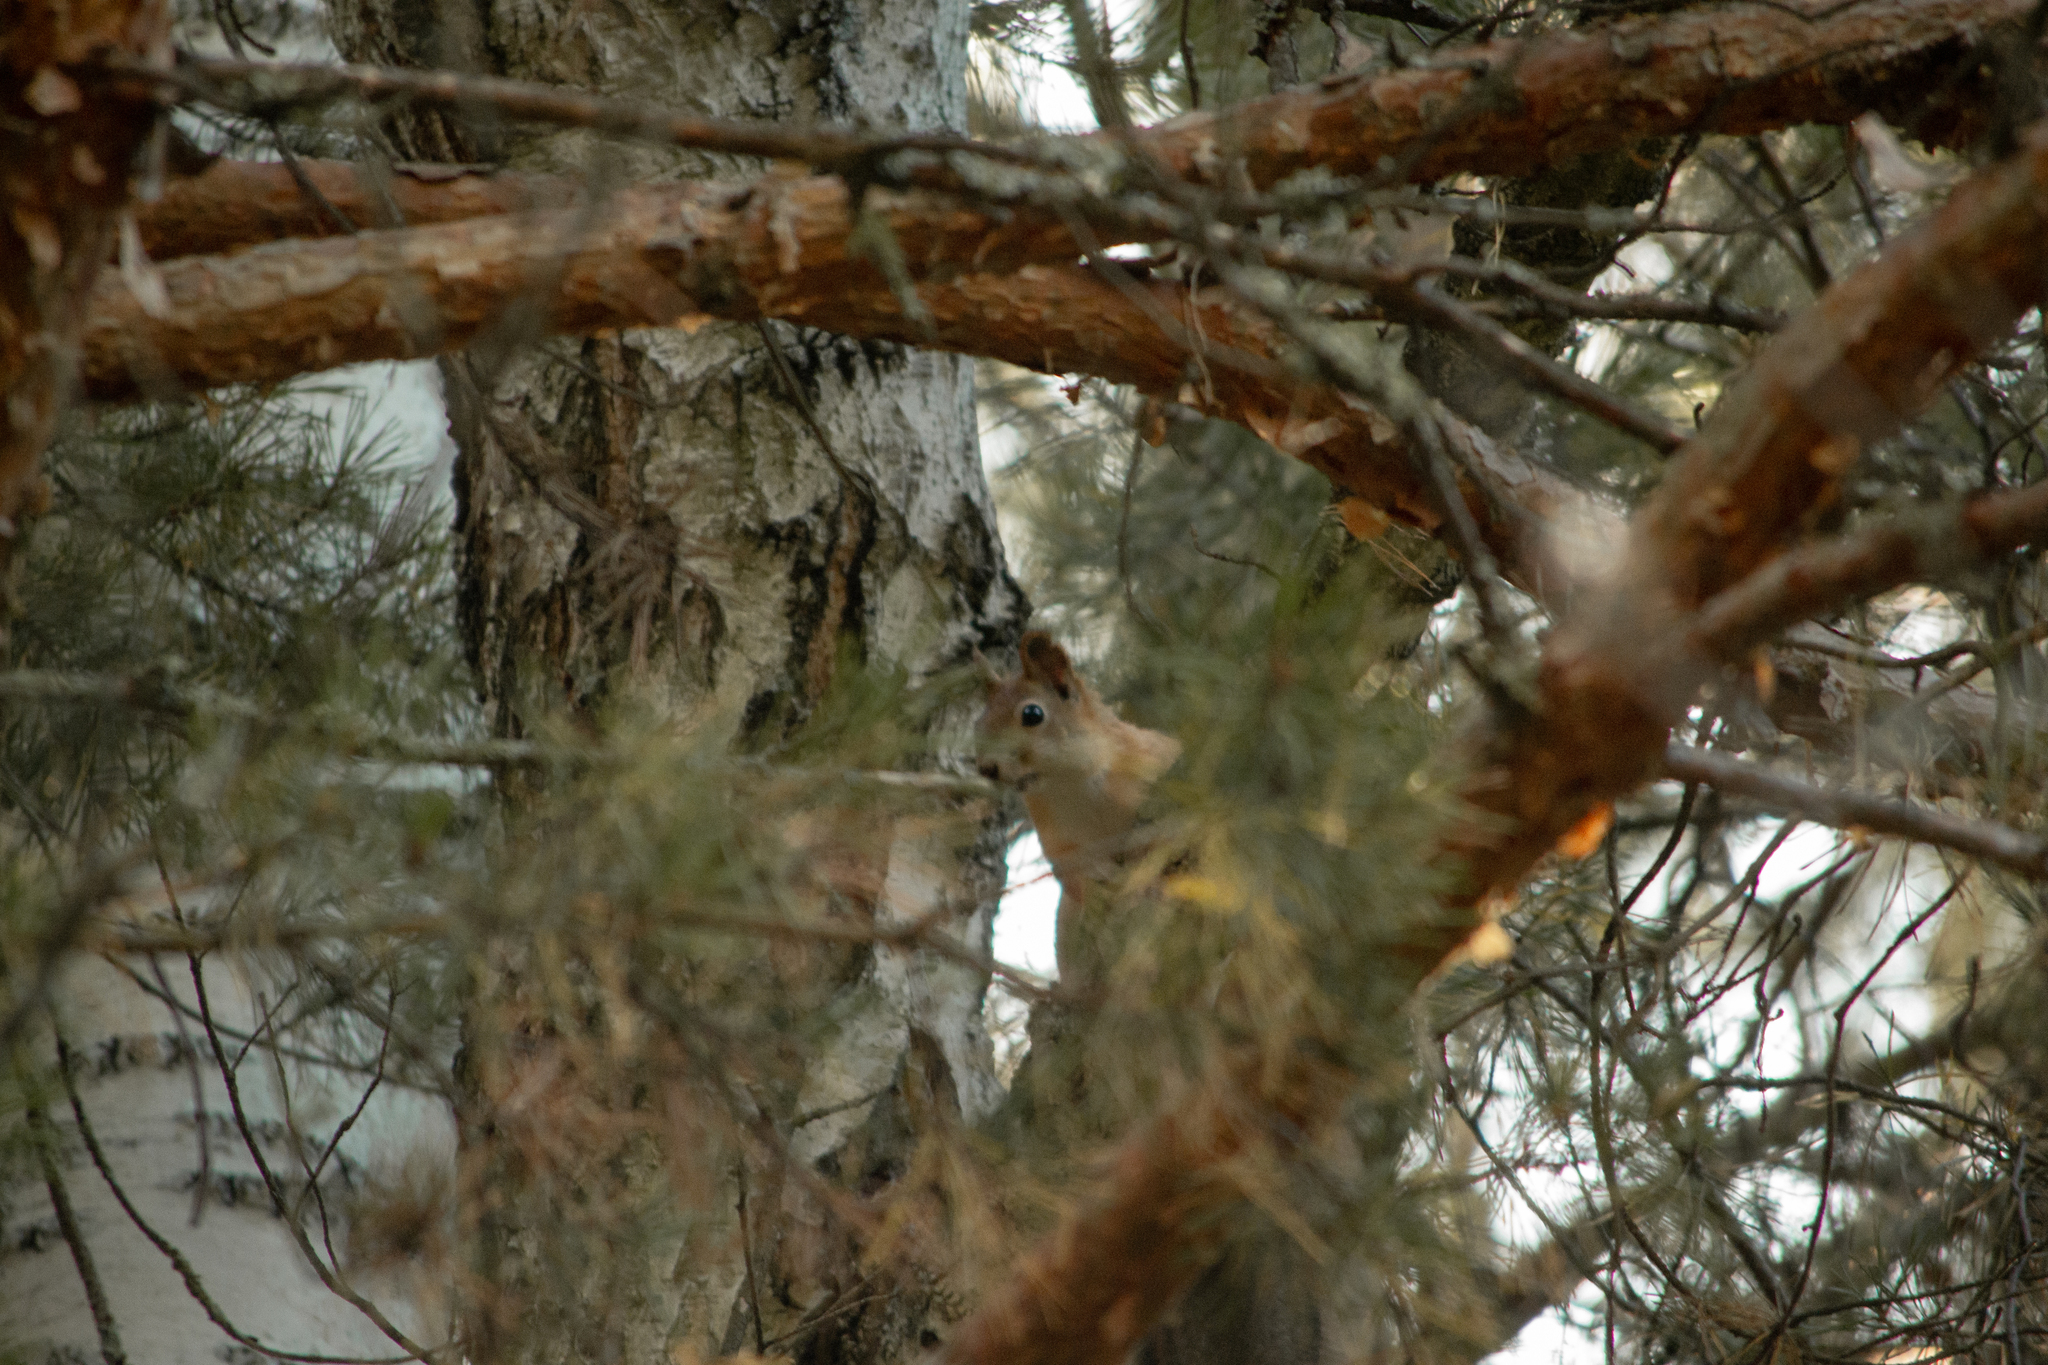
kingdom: Animalia
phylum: Chordata
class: Mammalia
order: Rodentia
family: Sciuridae
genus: Sciurus
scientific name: Sciurus vulgaris
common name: Eurasian red squirrel
